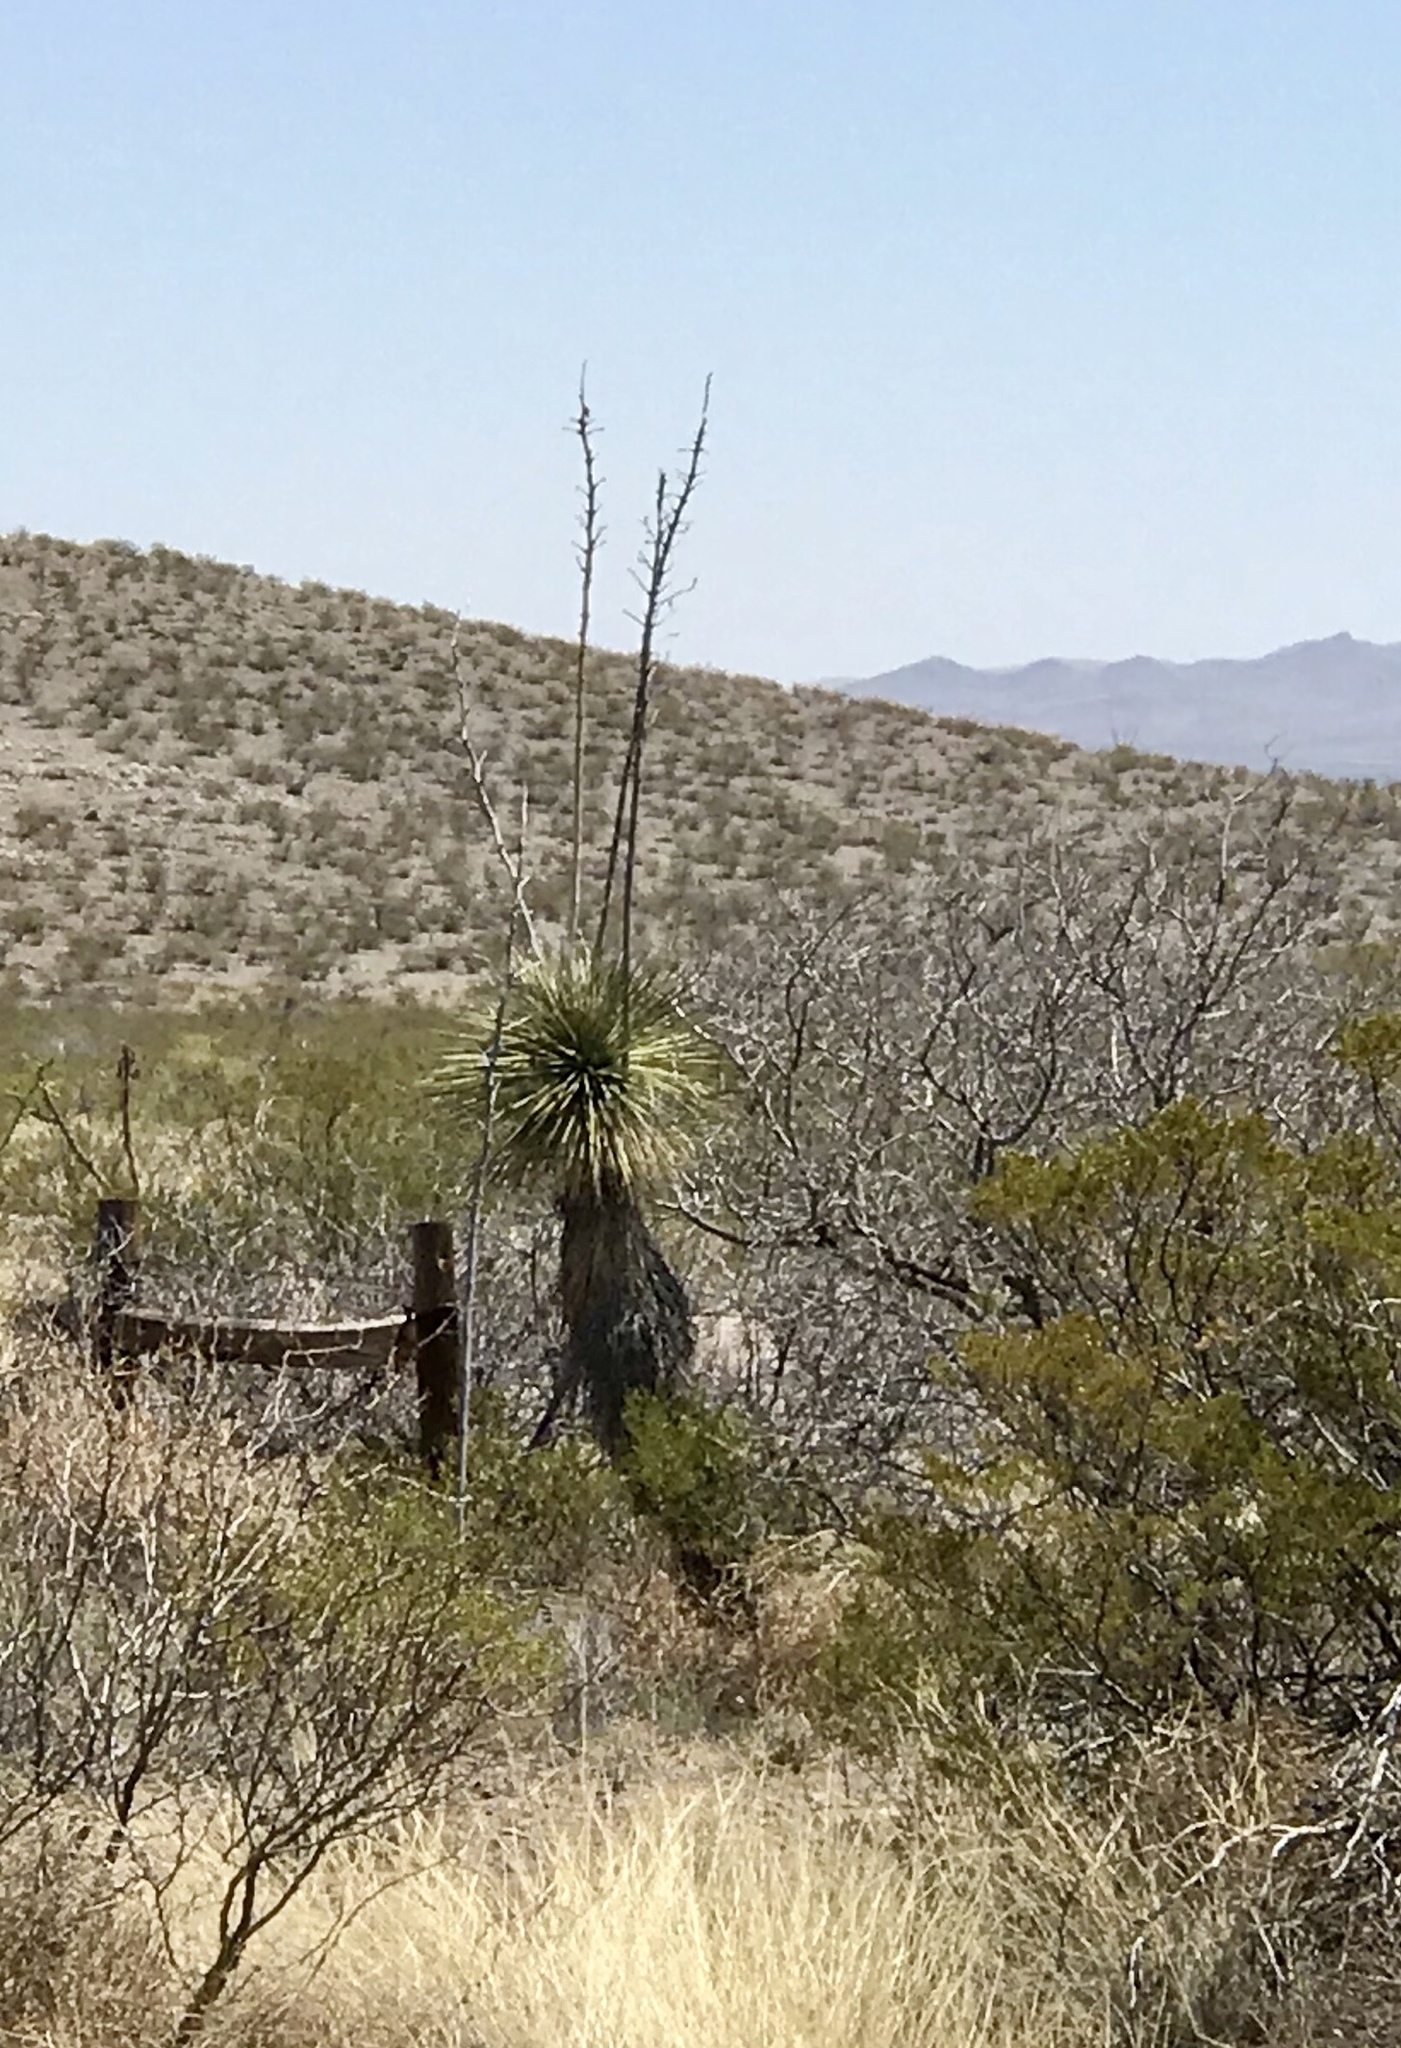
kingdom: Plantae
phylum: Tracheophyta
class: Liliopsida
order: Asparagales
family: Asparagaceae
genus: Yucca
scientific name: Yucca elata
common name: Palmella
